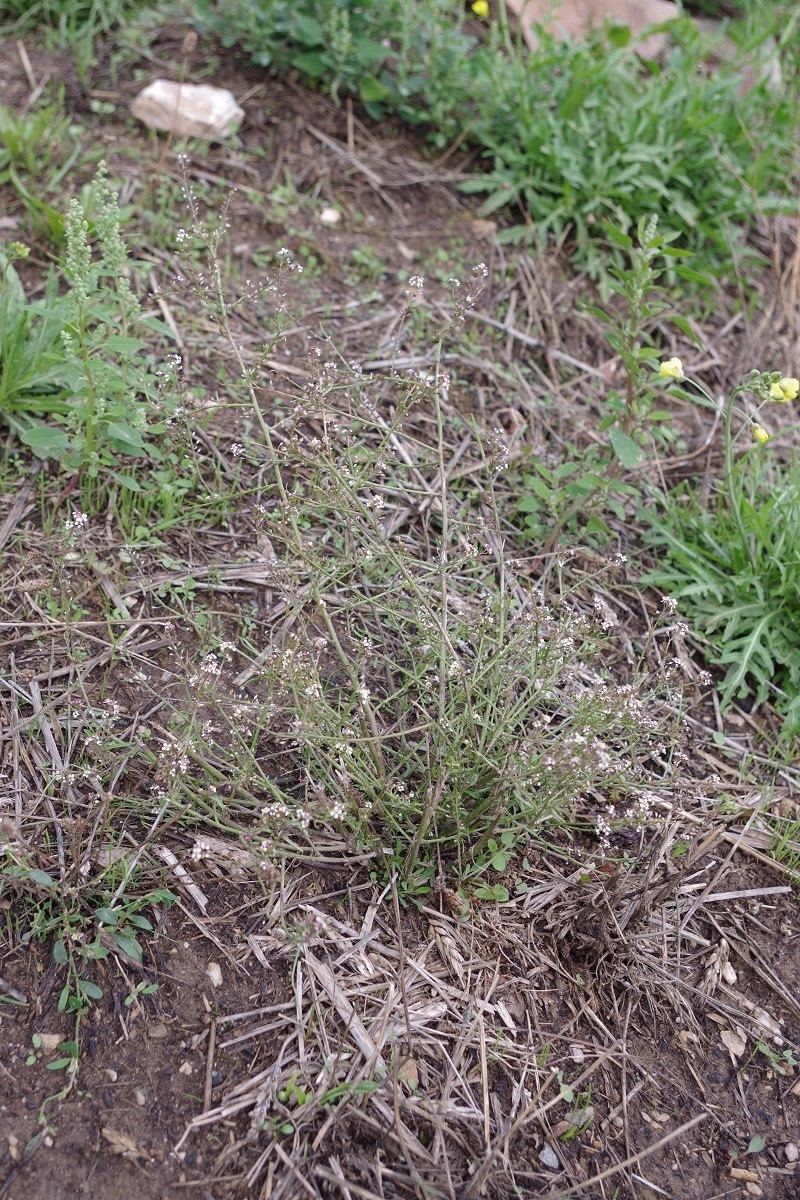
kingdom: Plantae
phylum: Tracheophyta
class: Magnoliopsida
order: Brassicales
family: Brassicaceae
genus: Lepidium
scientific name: Lepidium graminifolium
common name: Tall pepperwort
